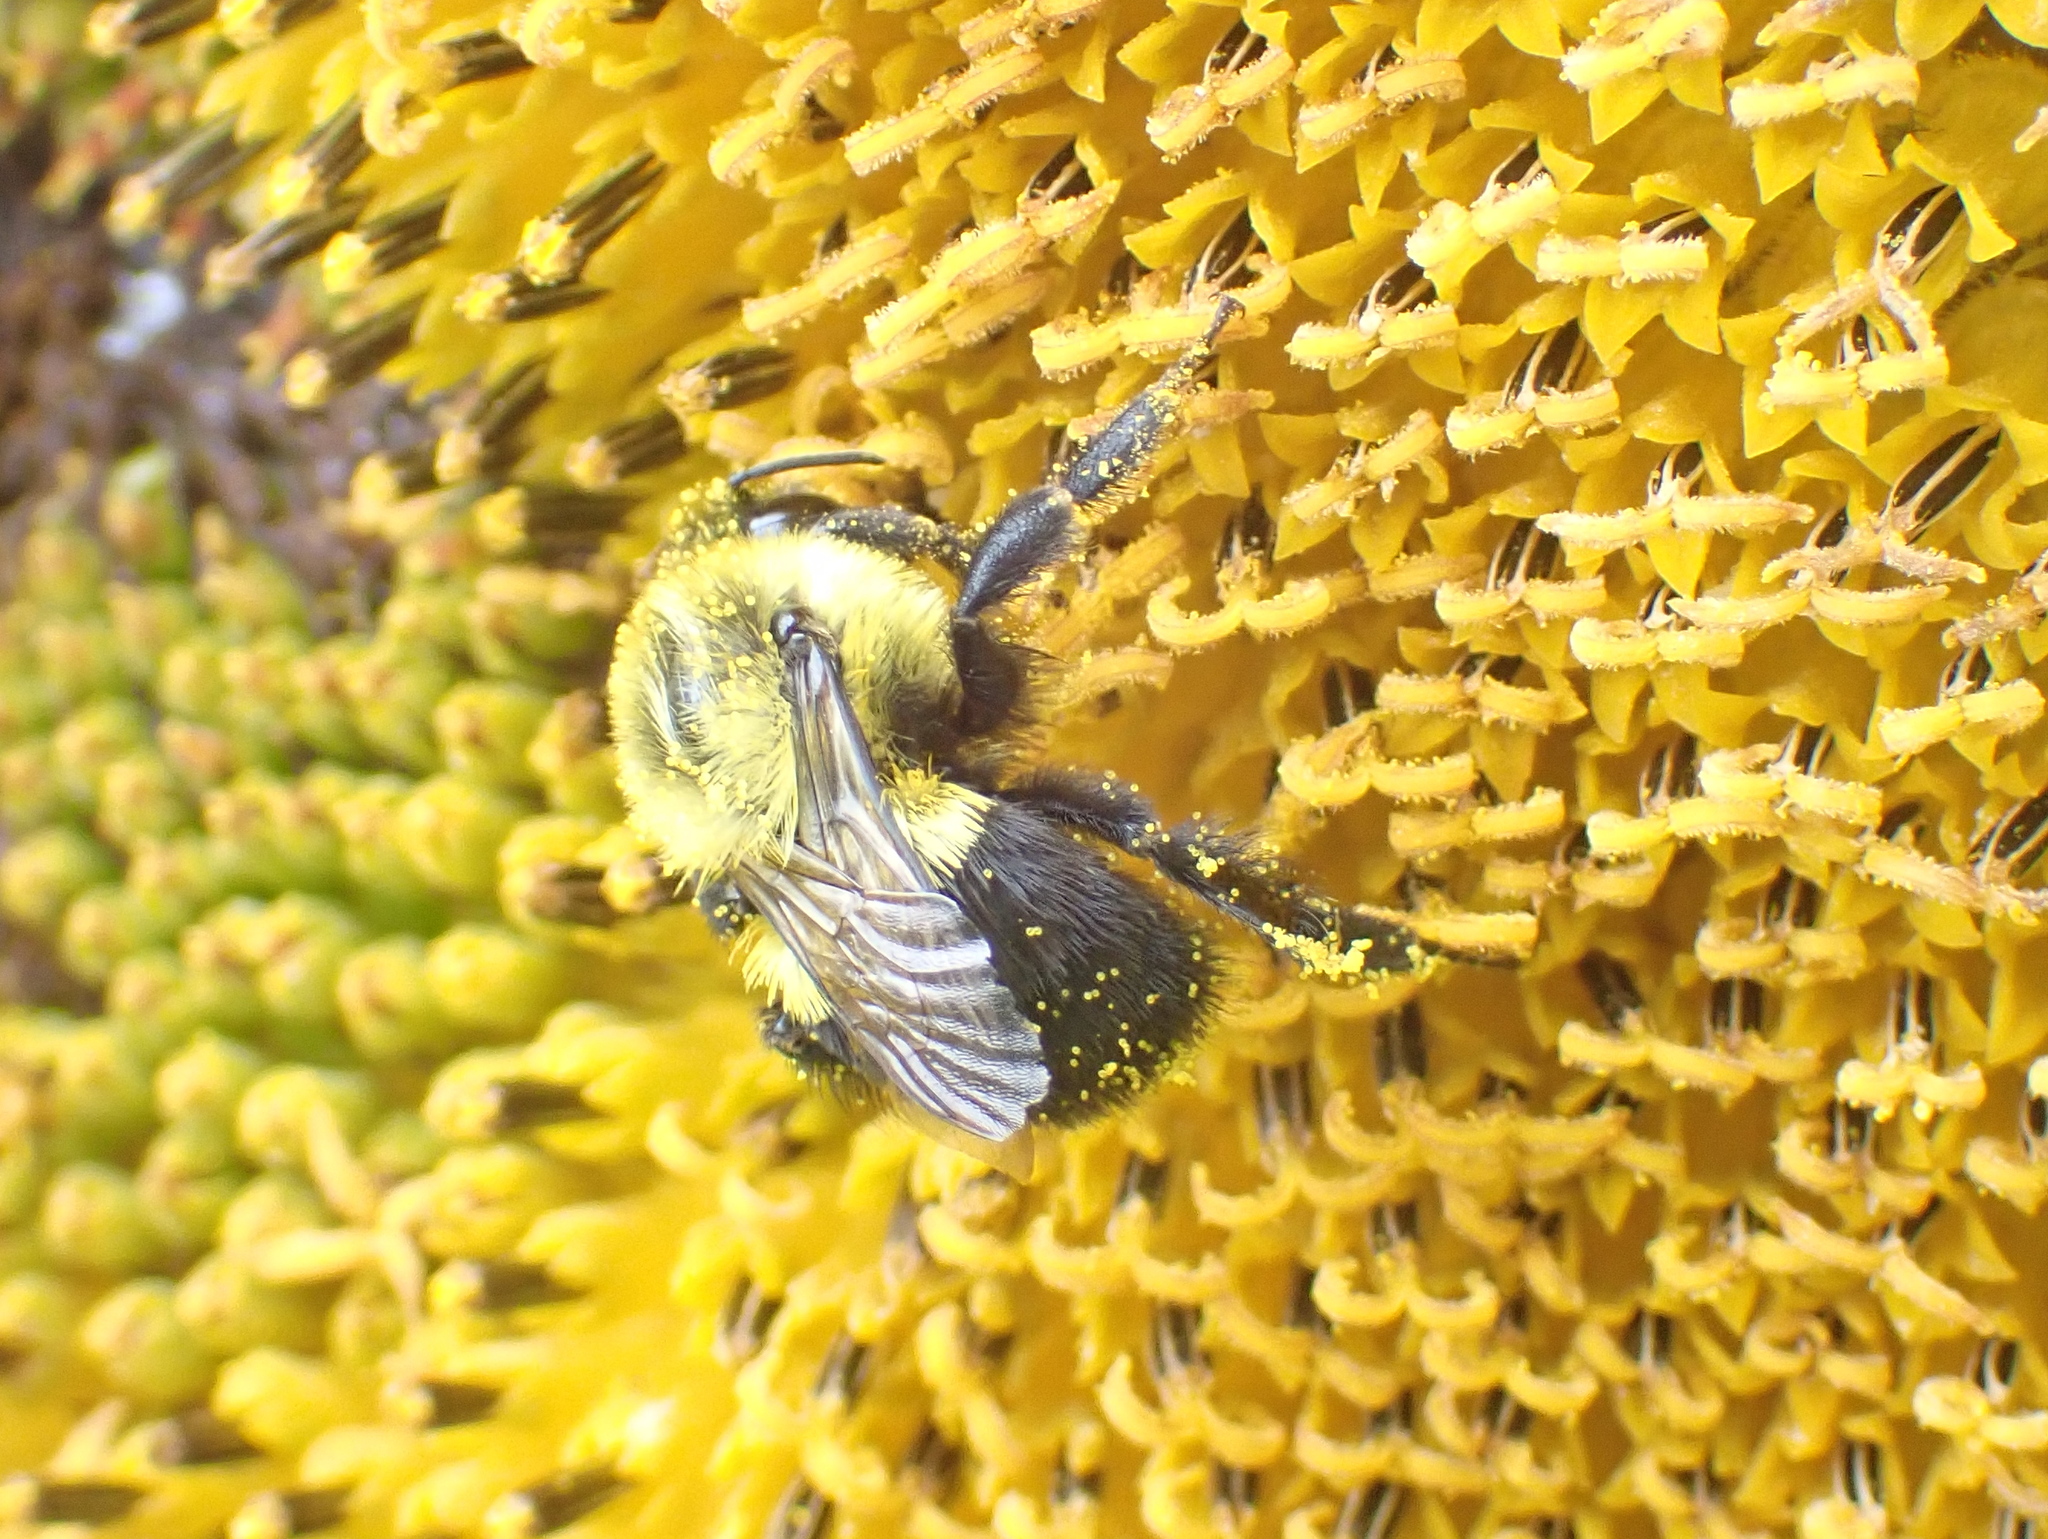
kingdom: Animalia
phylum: Arthropoda
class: Insecta
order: Hymenoptera
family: Apidae
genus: Bombus
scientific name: Bombus impatiens
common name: Common eastern bumble bee
